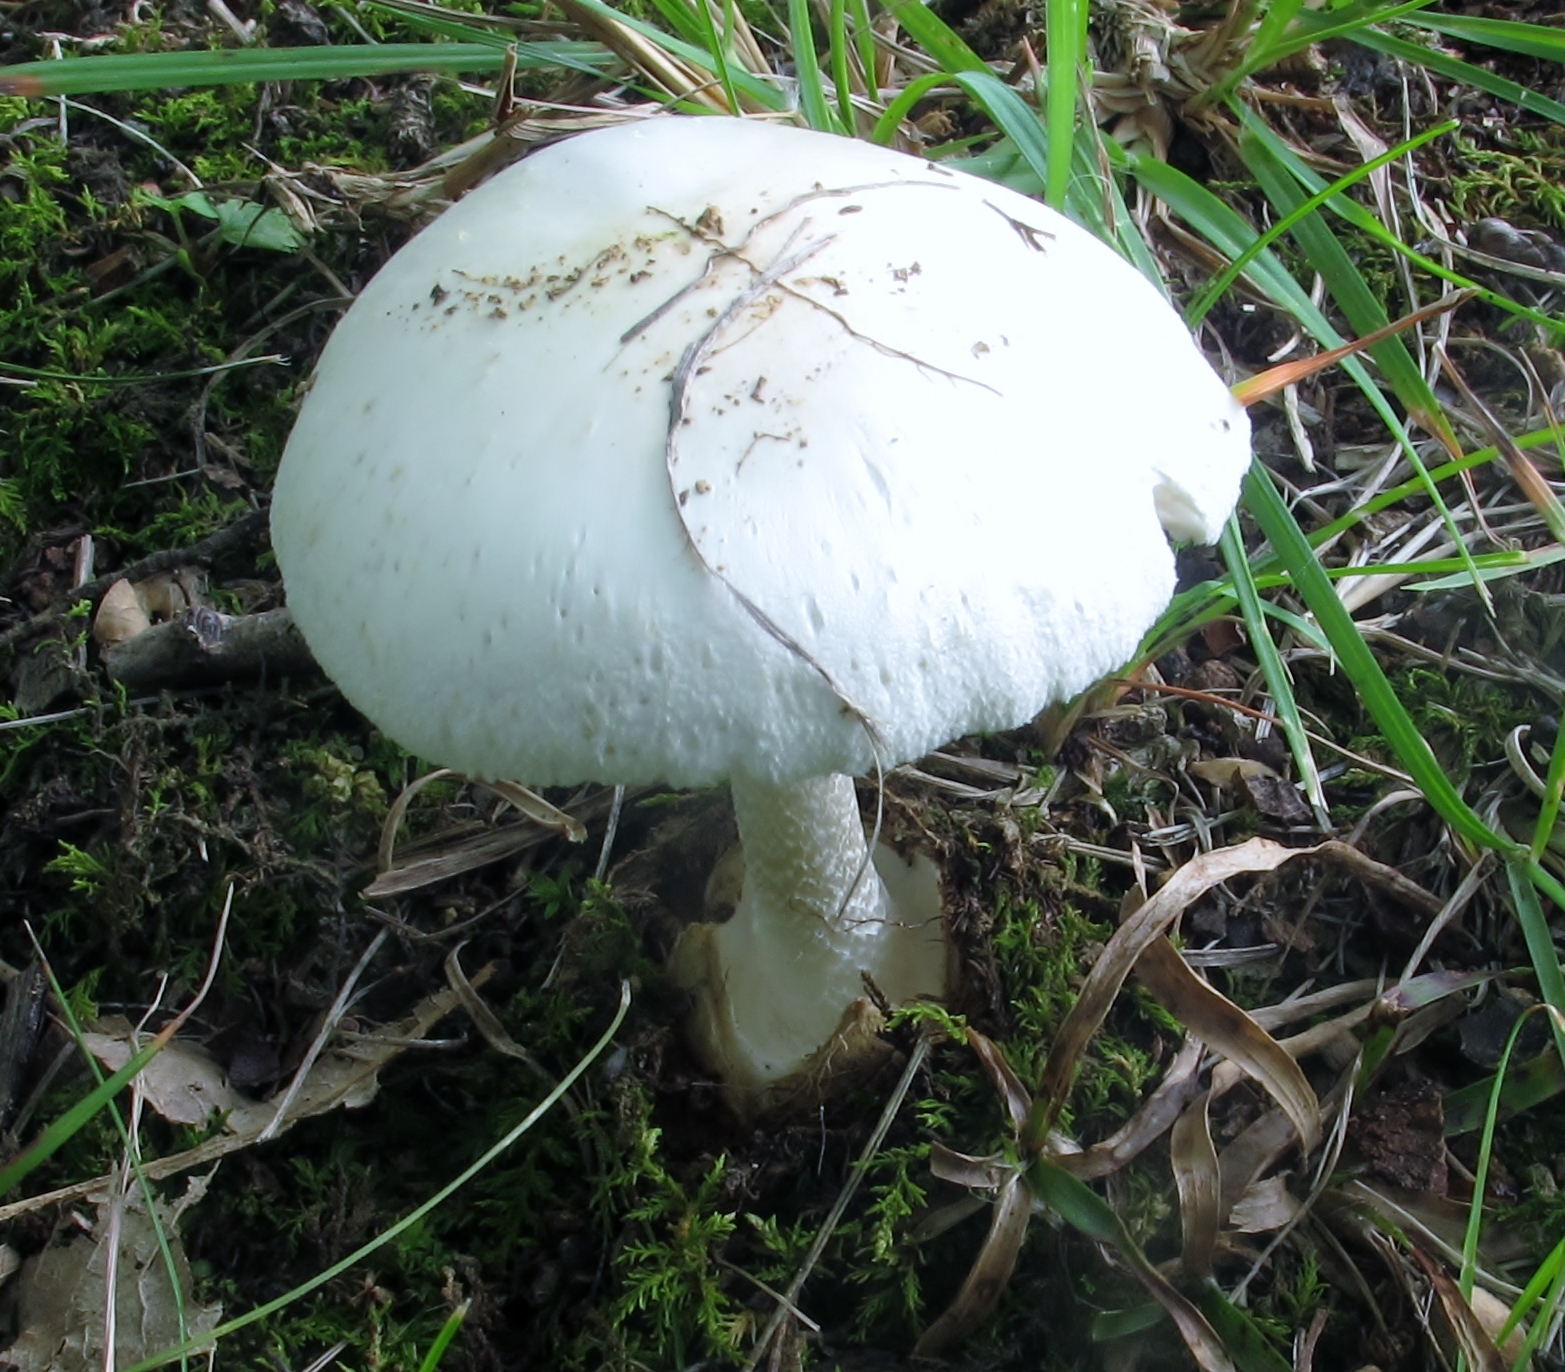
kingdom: Fungi
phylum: Basidiomycota
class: Agaricomycetes
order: Agaricales
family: Amanitaceae
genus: Amanita
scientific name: Amanita bisporigera
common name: Eastern north american destroying angel
